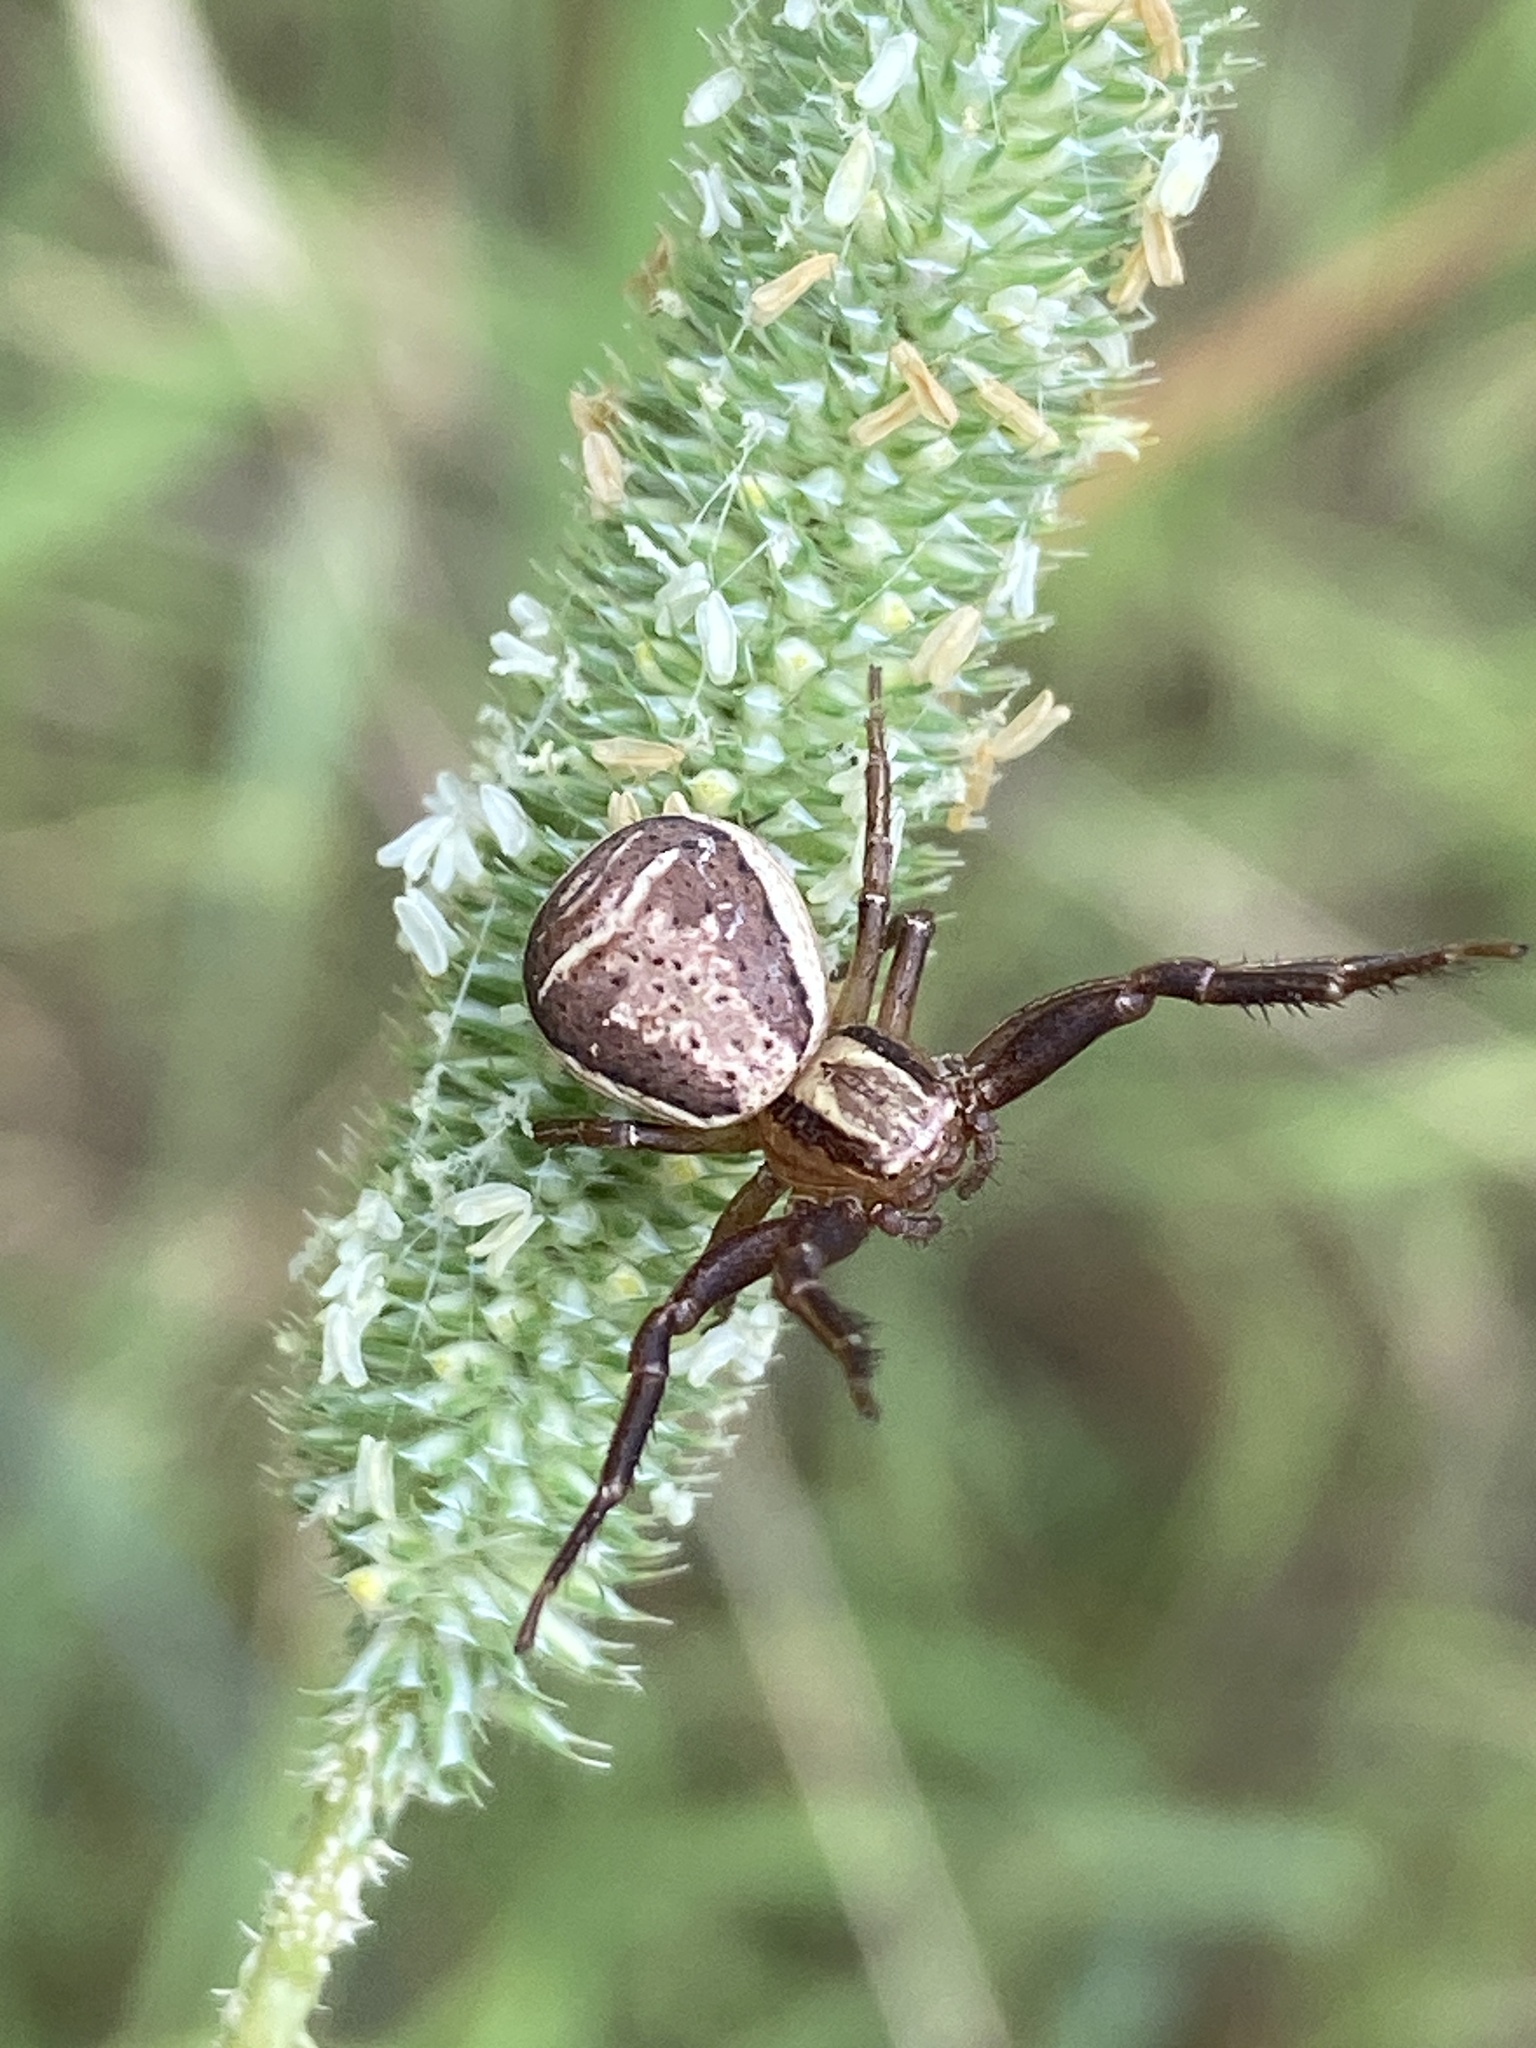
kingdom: Animalia
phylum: Arthropoda
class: Arachnida
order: Araneae
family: Thomisidae
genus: Xysticus
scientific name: Xysticus ulmi
